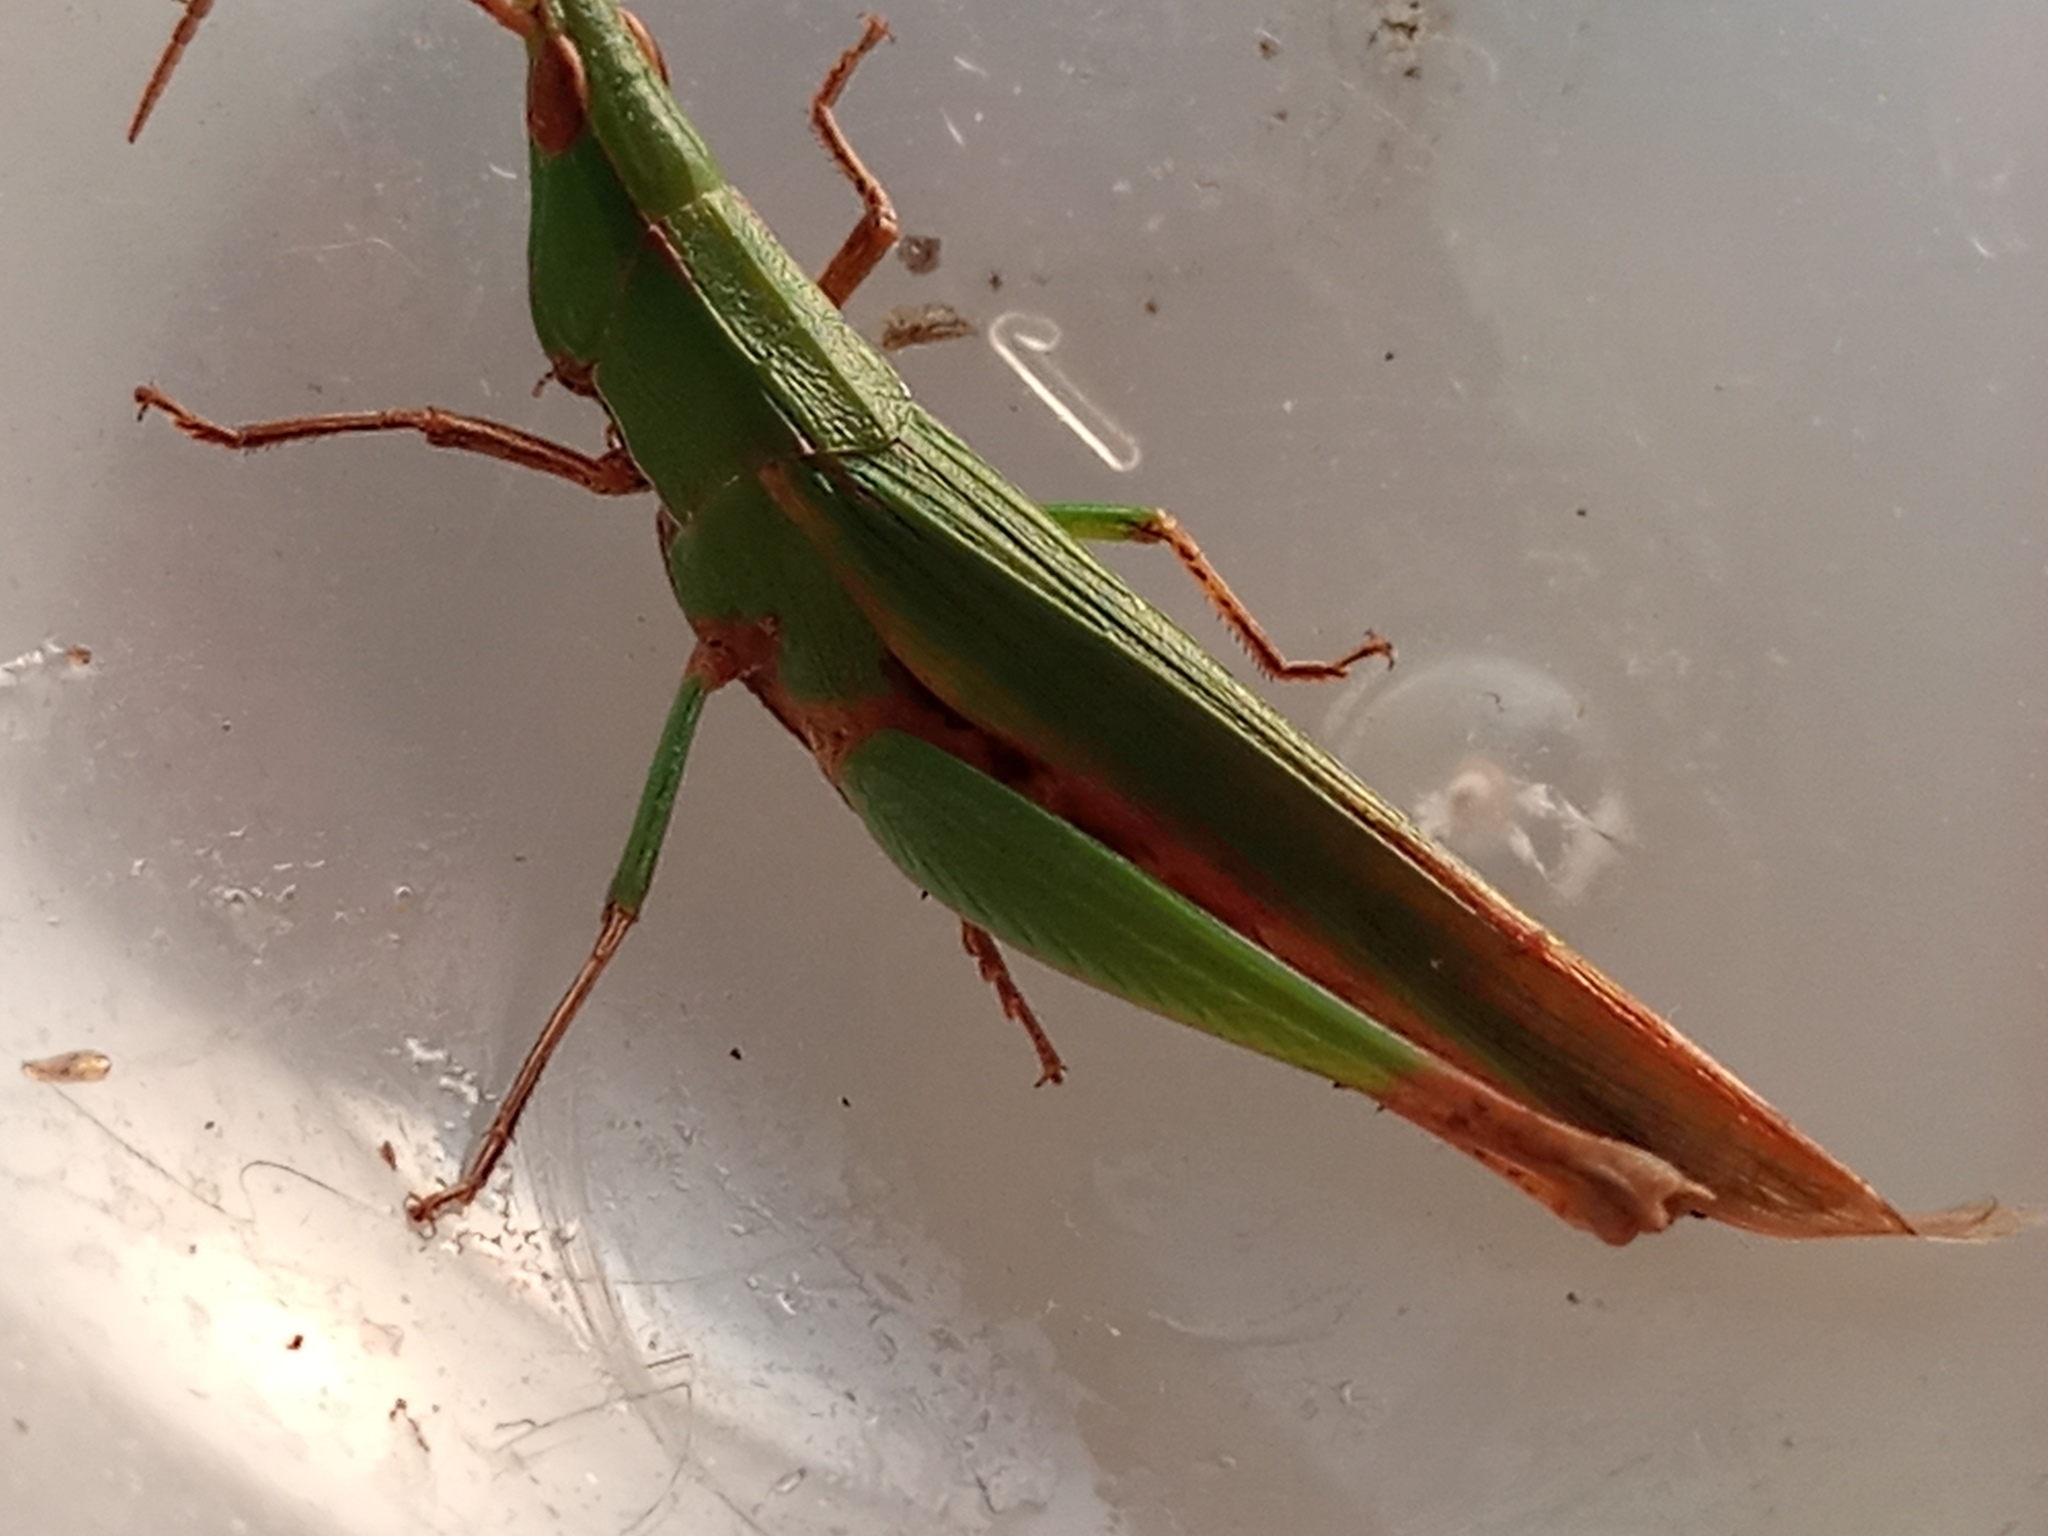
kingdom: Animalia
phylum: Arthropoda
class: Insecta
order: Orthoptera
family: Acrididae
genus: Allotruxalis
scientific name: Allotruxalis gracilis
